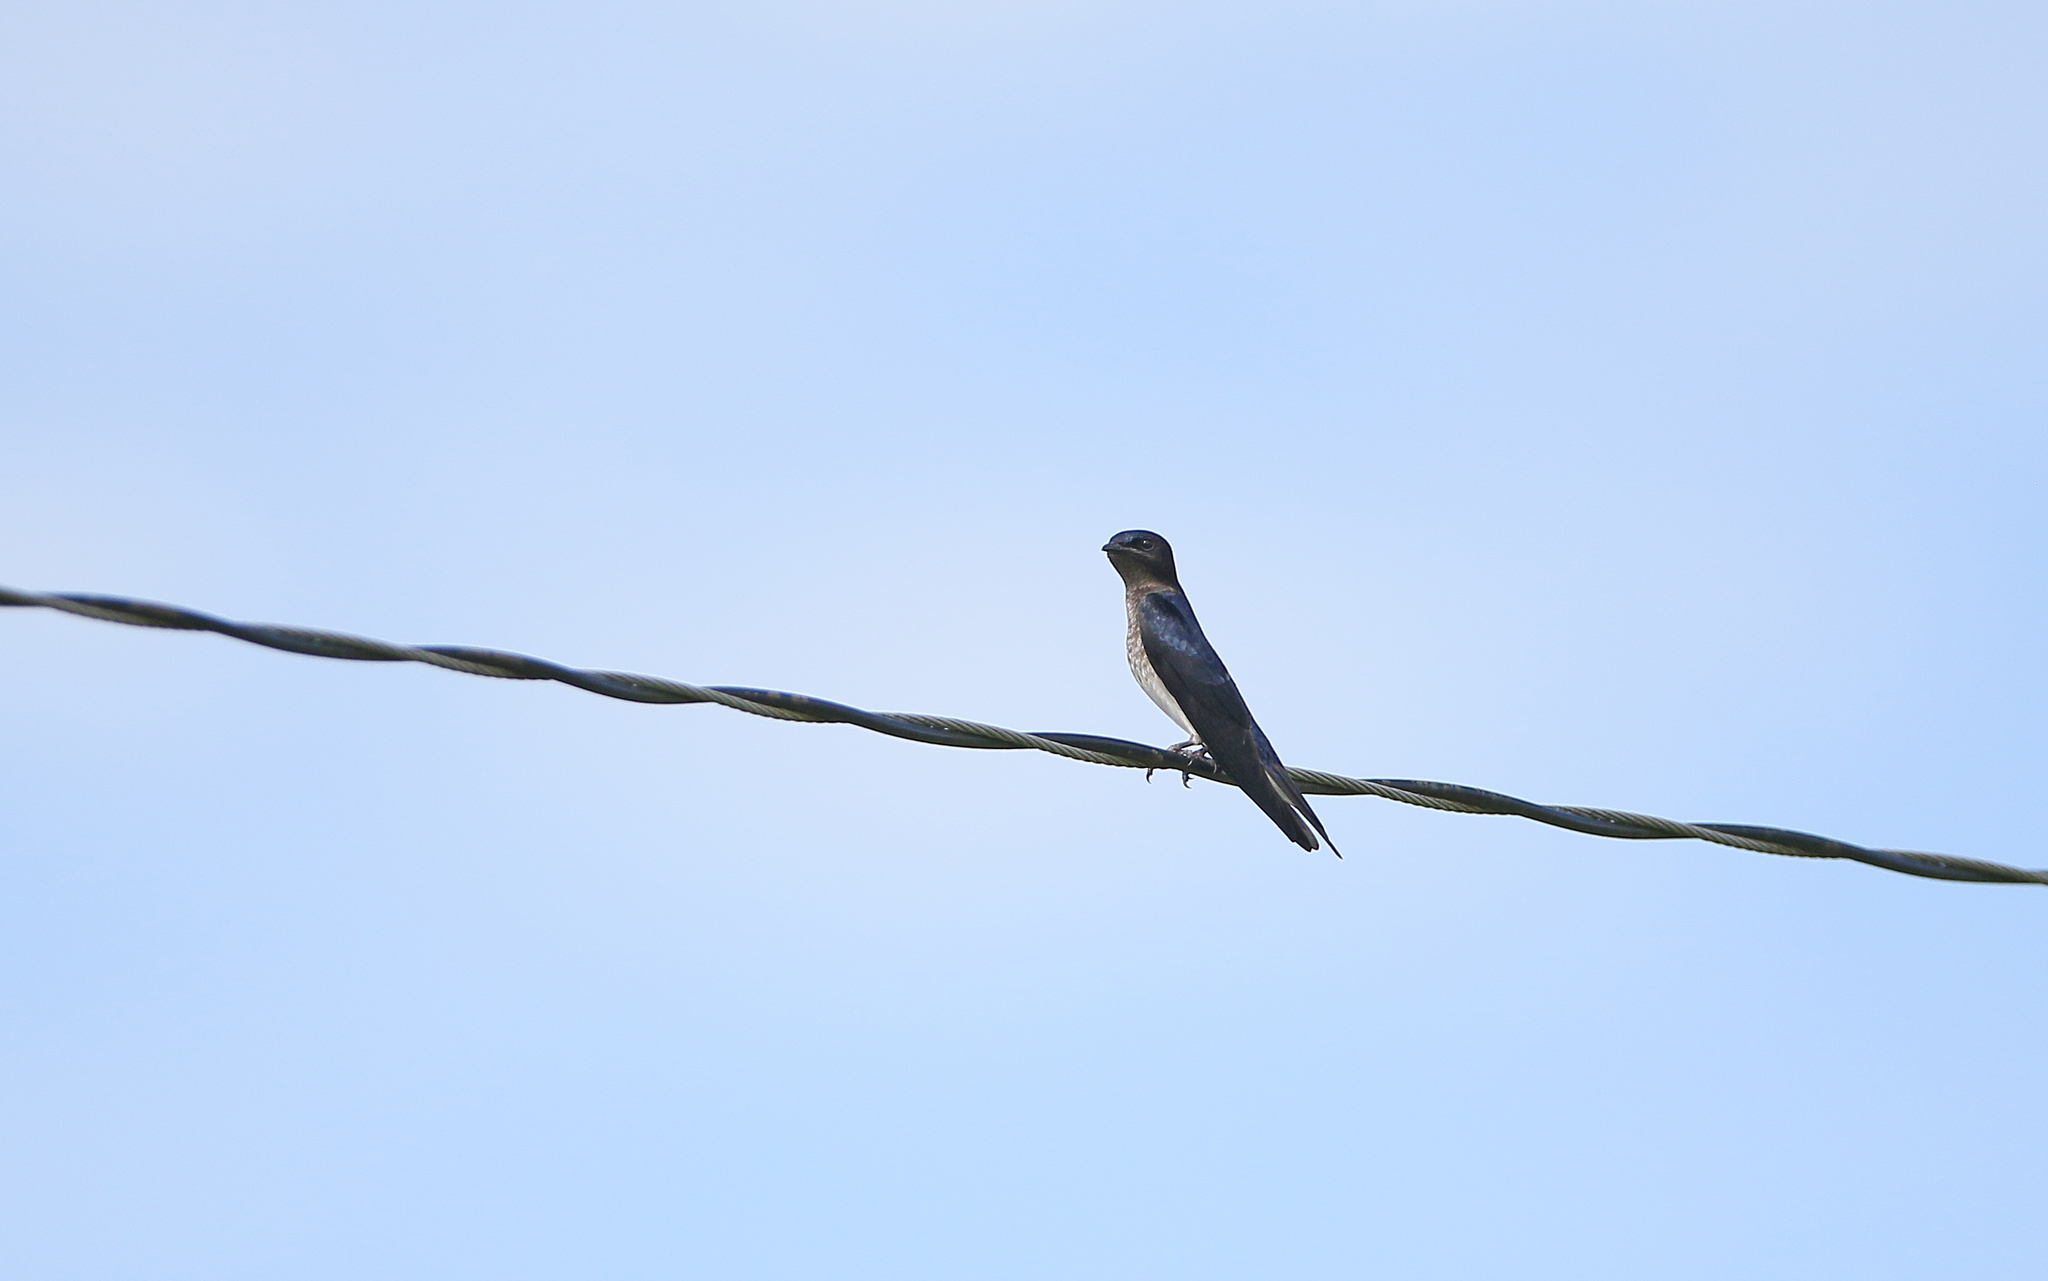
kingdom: Animalia
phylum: Chordata
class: Aves
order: Passeriformes
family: Hirundinidae
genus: Progne
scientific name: Progne chalybea
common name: Grey-breasted martin
